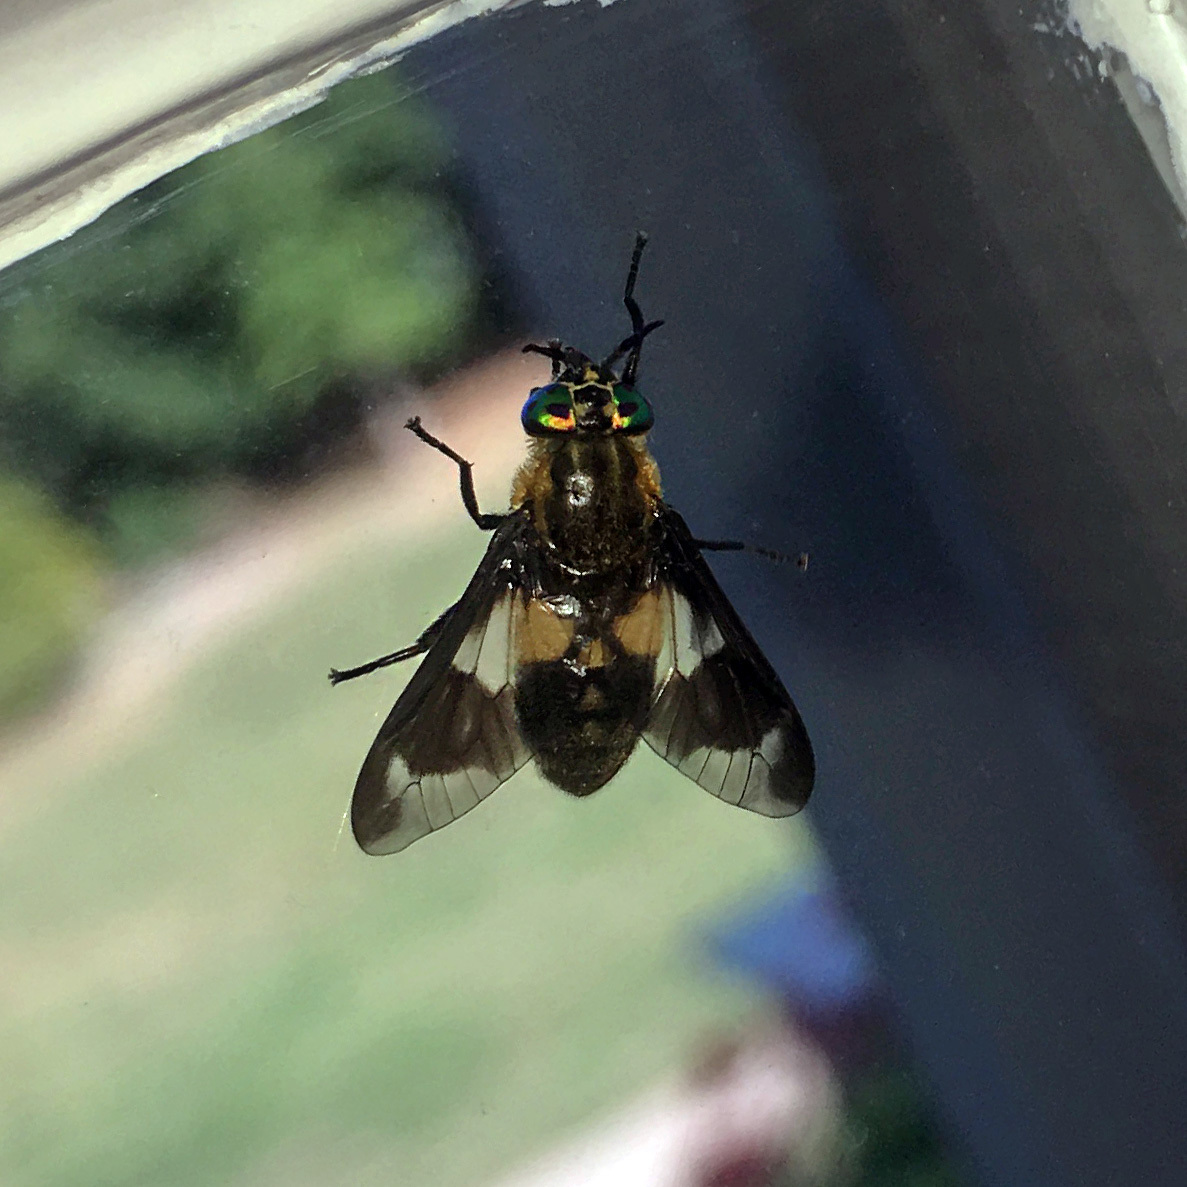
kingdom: Animalia
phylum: Arthropoda
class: Insecta
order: Diptera
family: Tabanidae
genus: Chrysops
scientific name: Chrysops caecutiens
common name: Splayed deerfly
